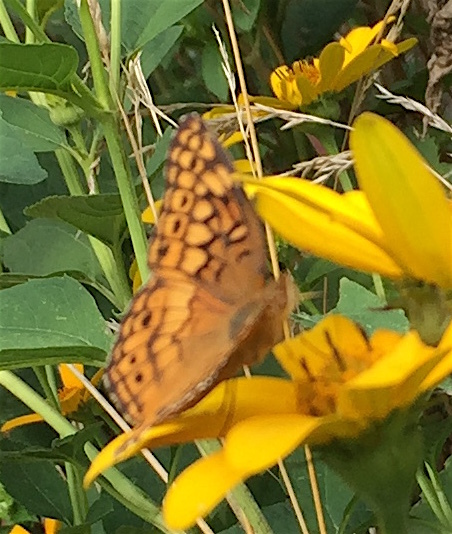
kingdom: Animalia
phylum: Arthropoda
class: Insecta
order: Lepidoptera
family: Nymphalidae
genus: Euptoieta
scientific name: Euptoieta claudia
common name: Variegated fritillary
